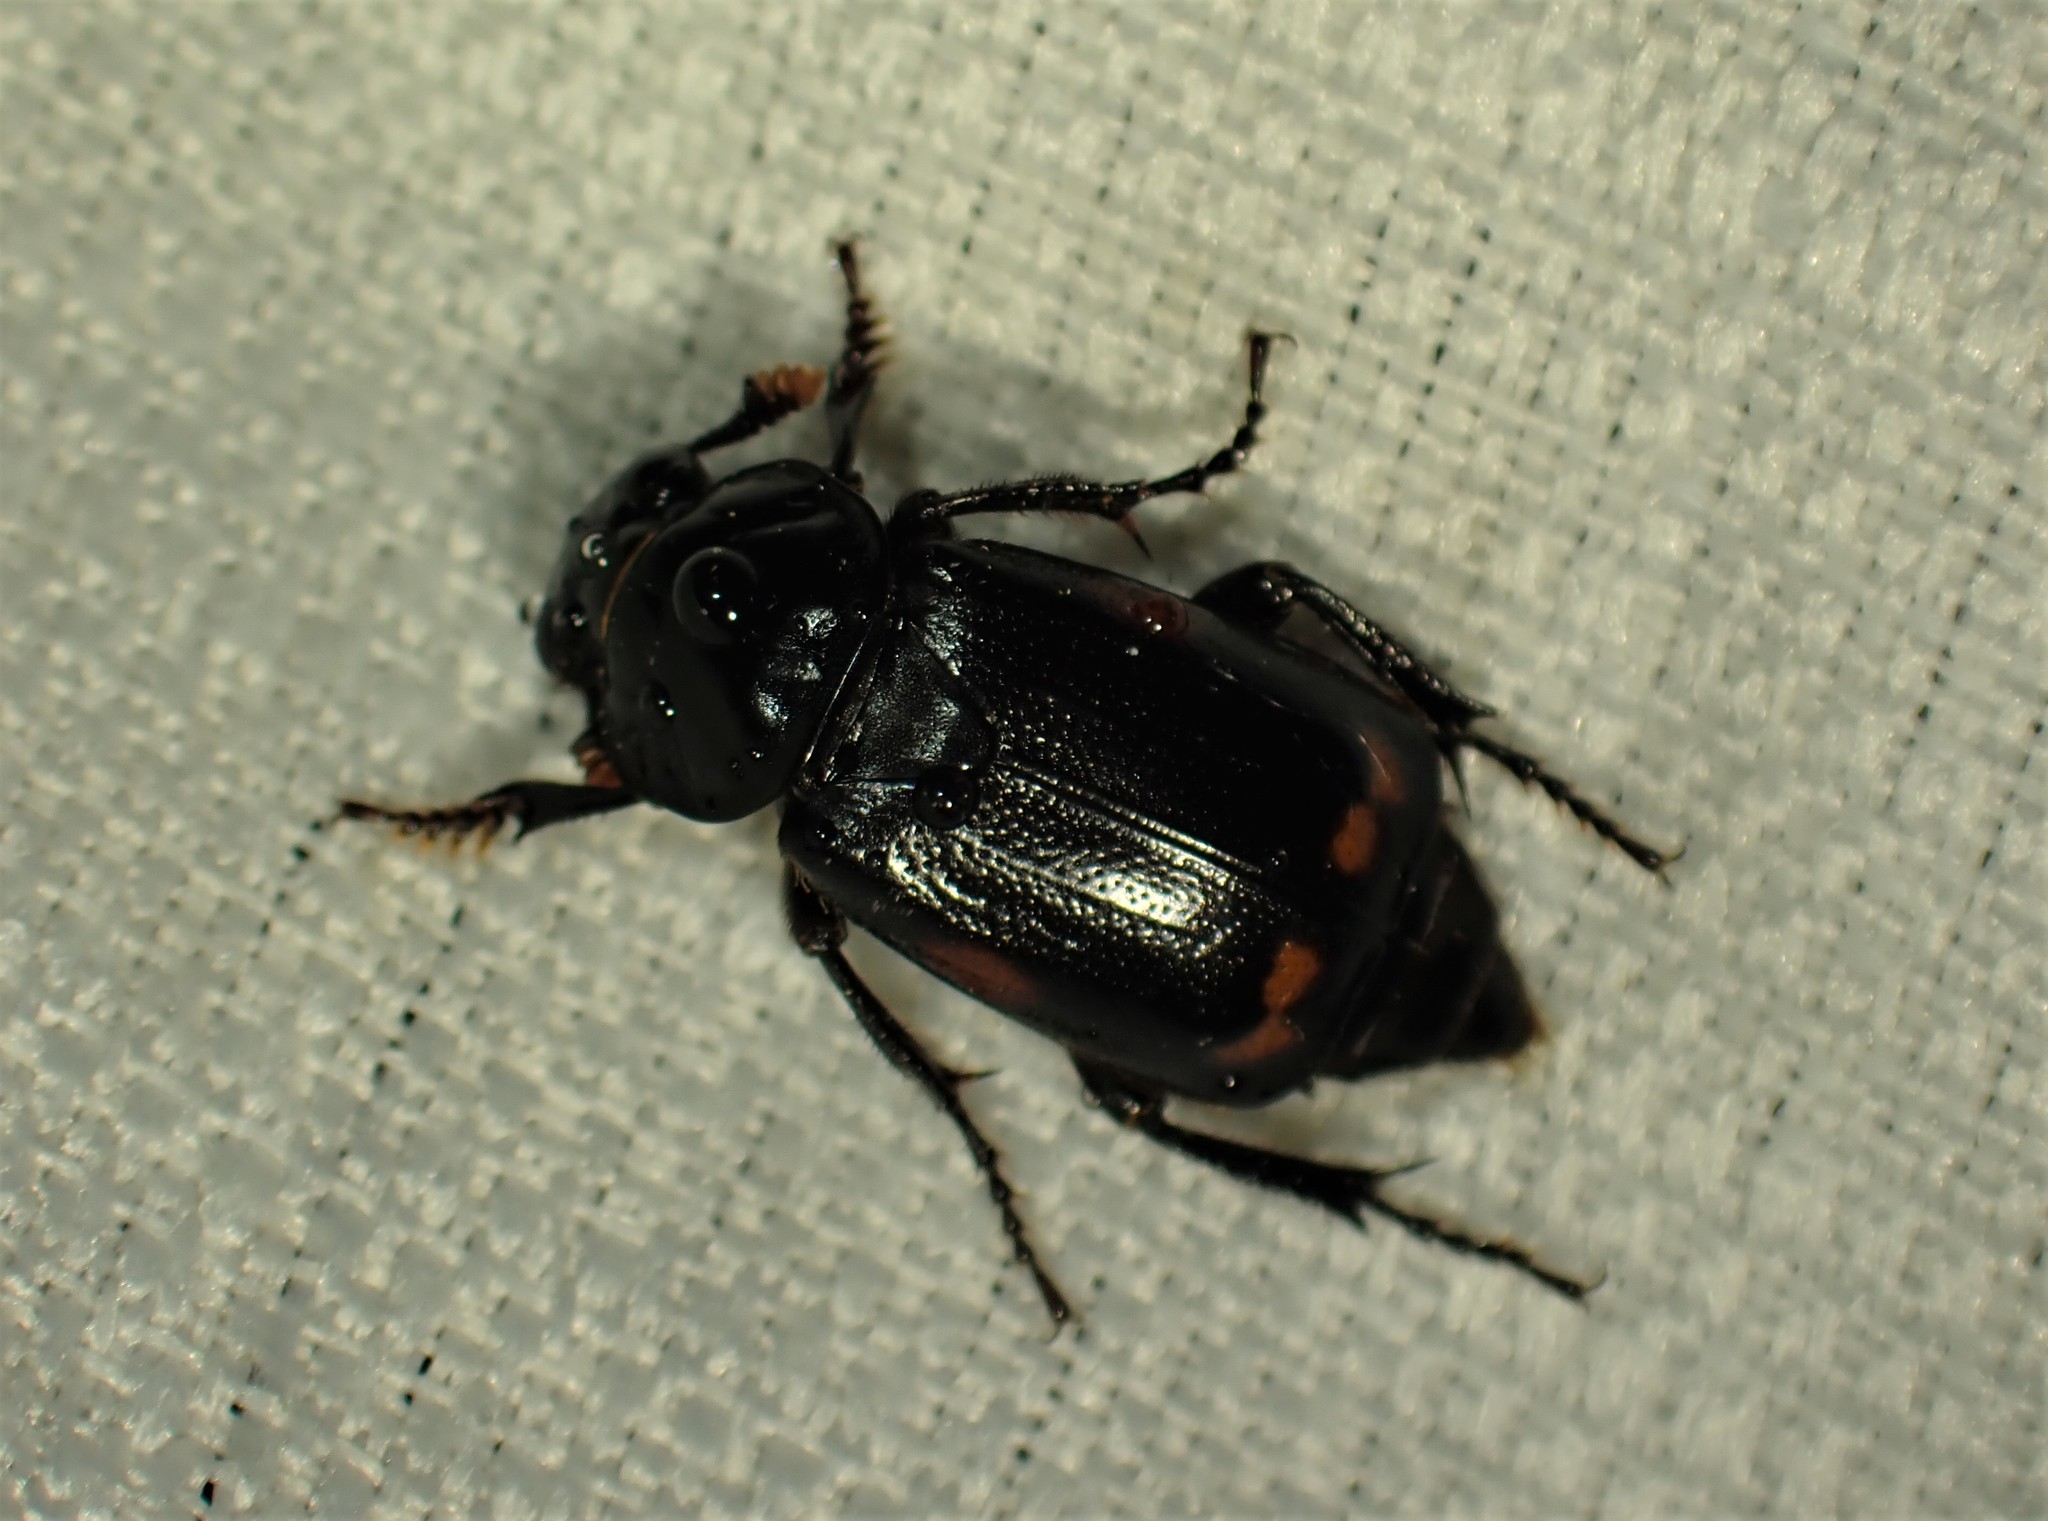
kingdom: Animalia
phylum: Arthropoda
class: Insecta
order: Coleoptera
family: Staphylinidae
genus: Nicrophorus
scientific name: Nicrophorus pustulatus
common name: Pustulated carrion beetle
